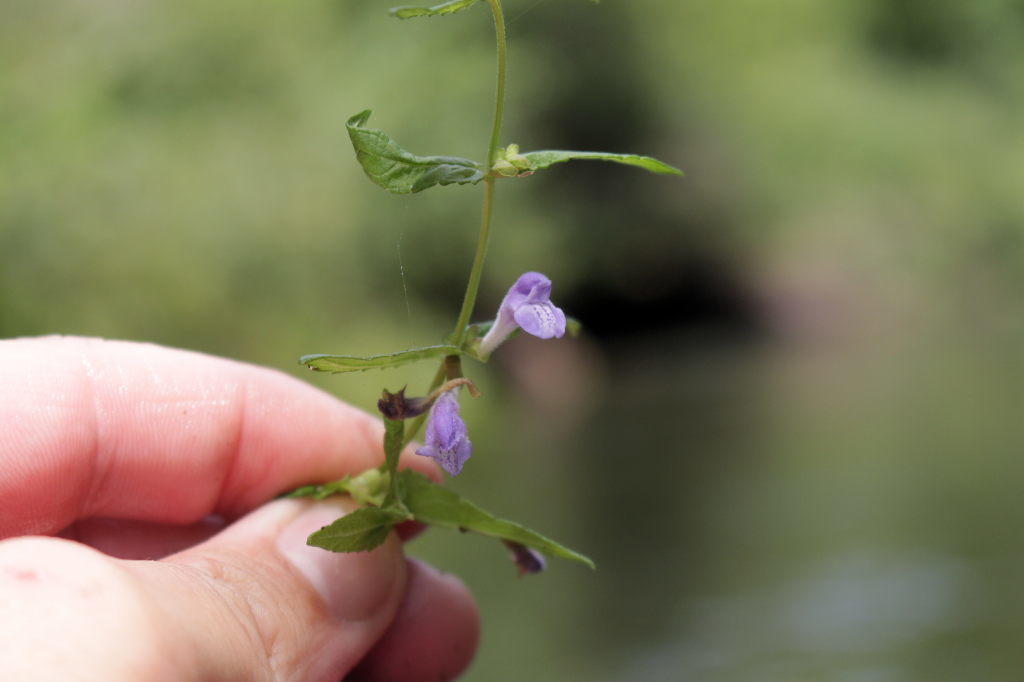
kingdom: Plantae
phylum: Tracheophyta
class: Magnoliopsida
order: Lamiales
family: Lamiaceae
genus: Scutellaria
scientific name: Scutellaria galericulata
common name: Skullcap
